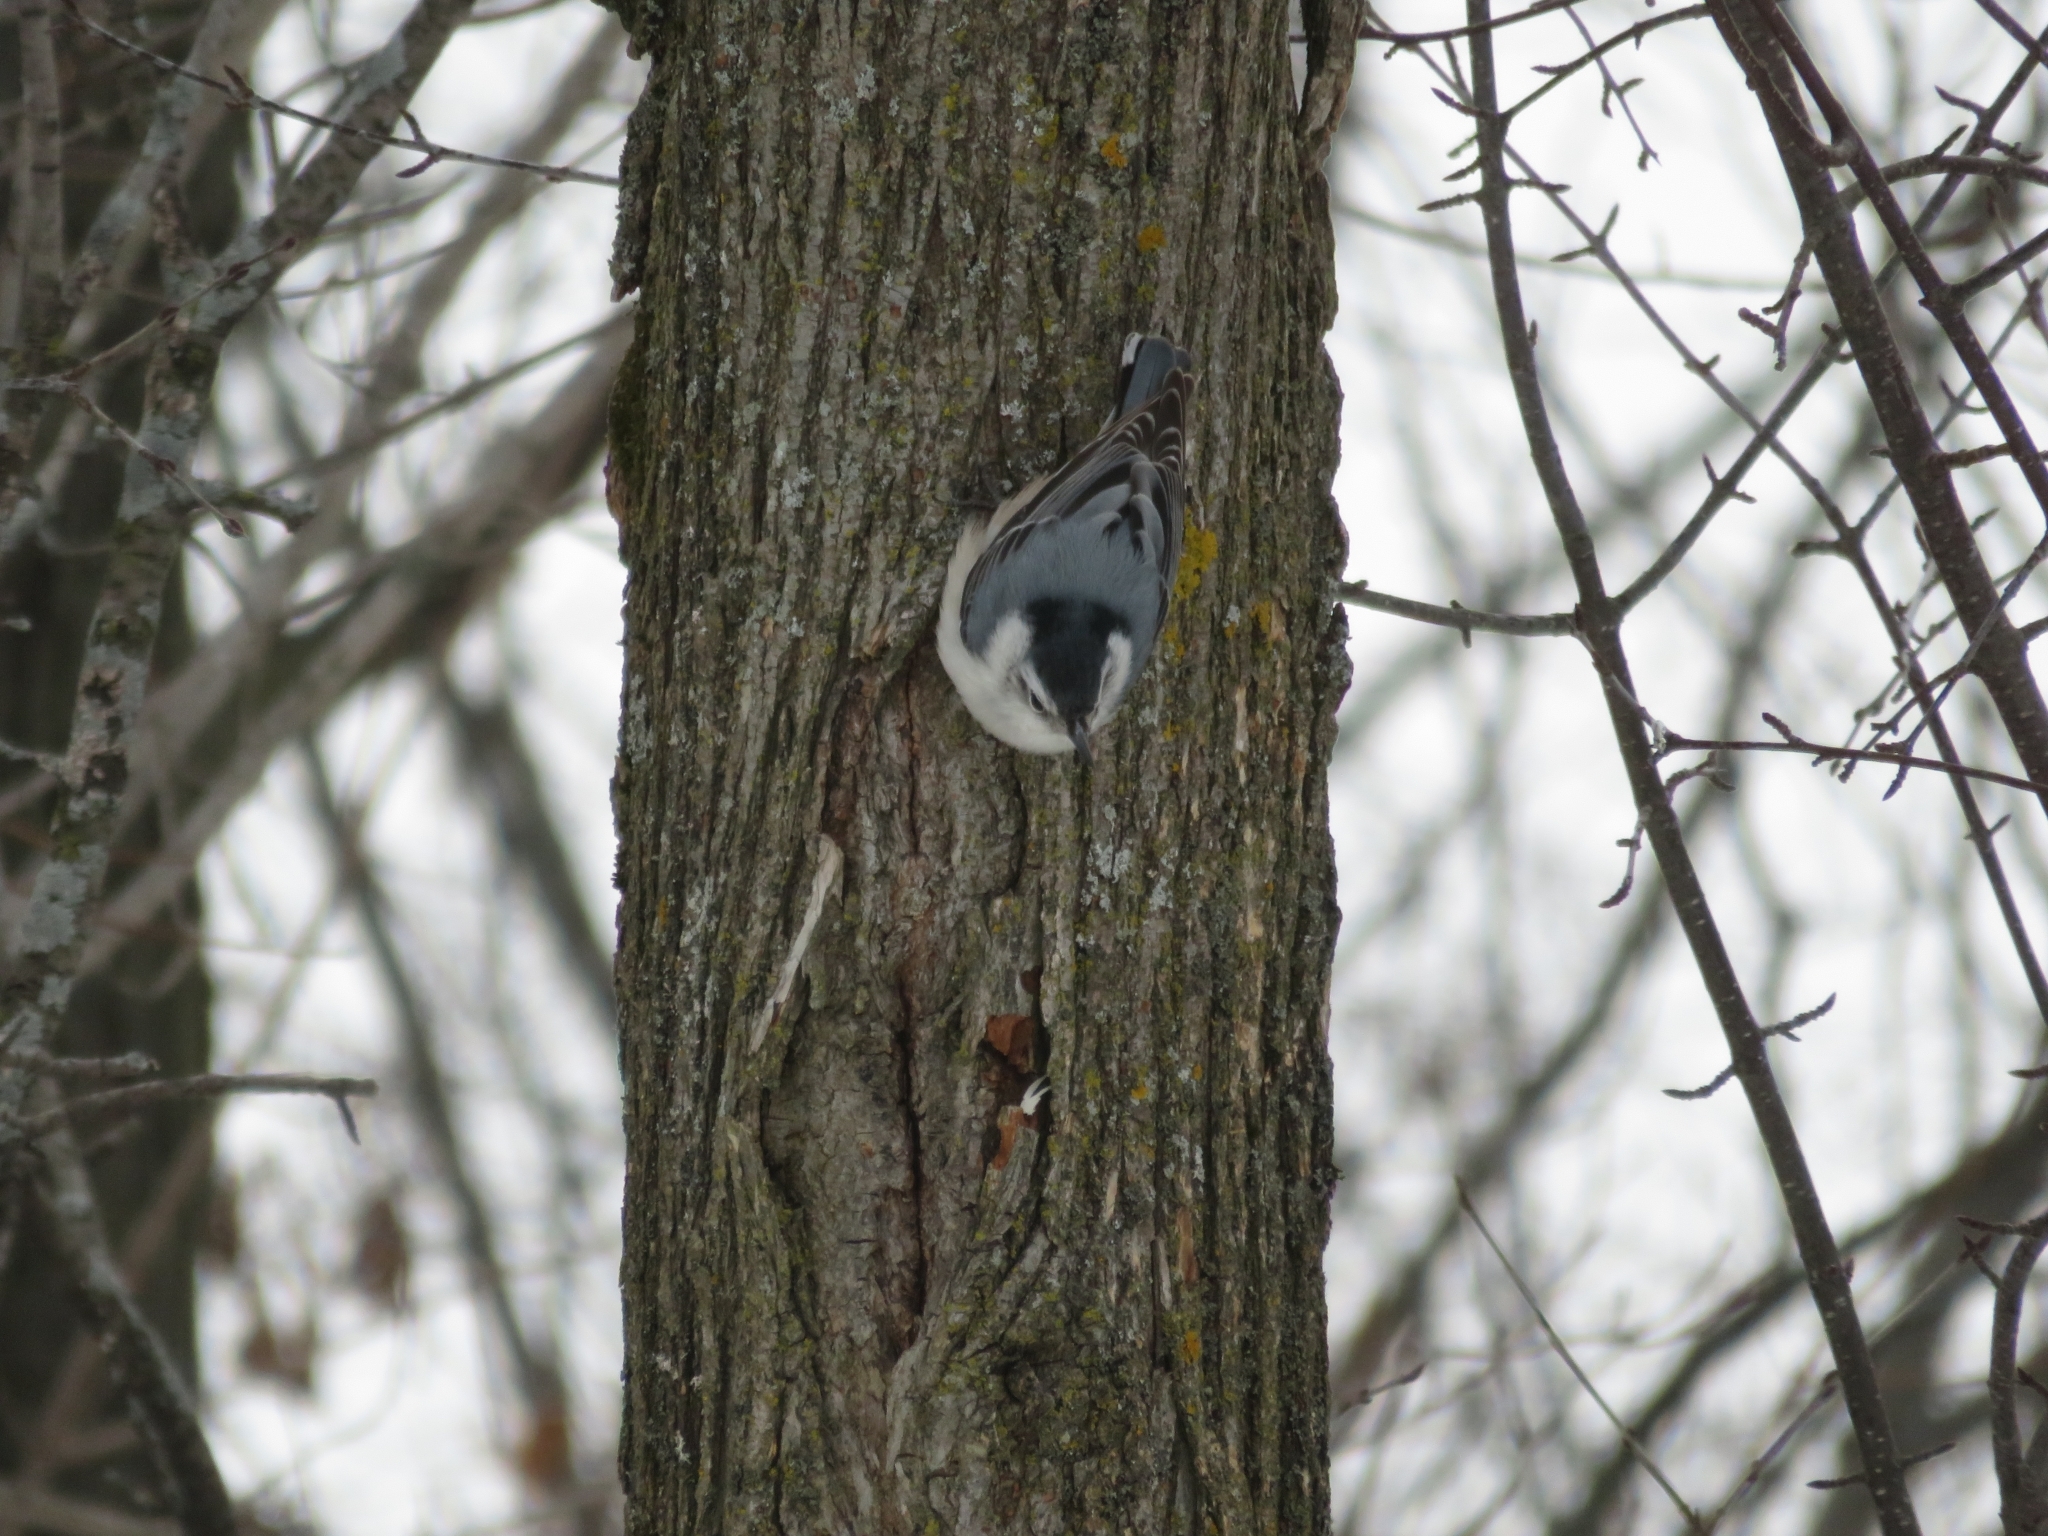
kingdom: Animalia
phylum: Chordata
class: Aves
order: Passeriformes
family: Sittidae
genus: Sitta
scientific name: Sitta carolinensis
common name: White-breasted nuthatch
